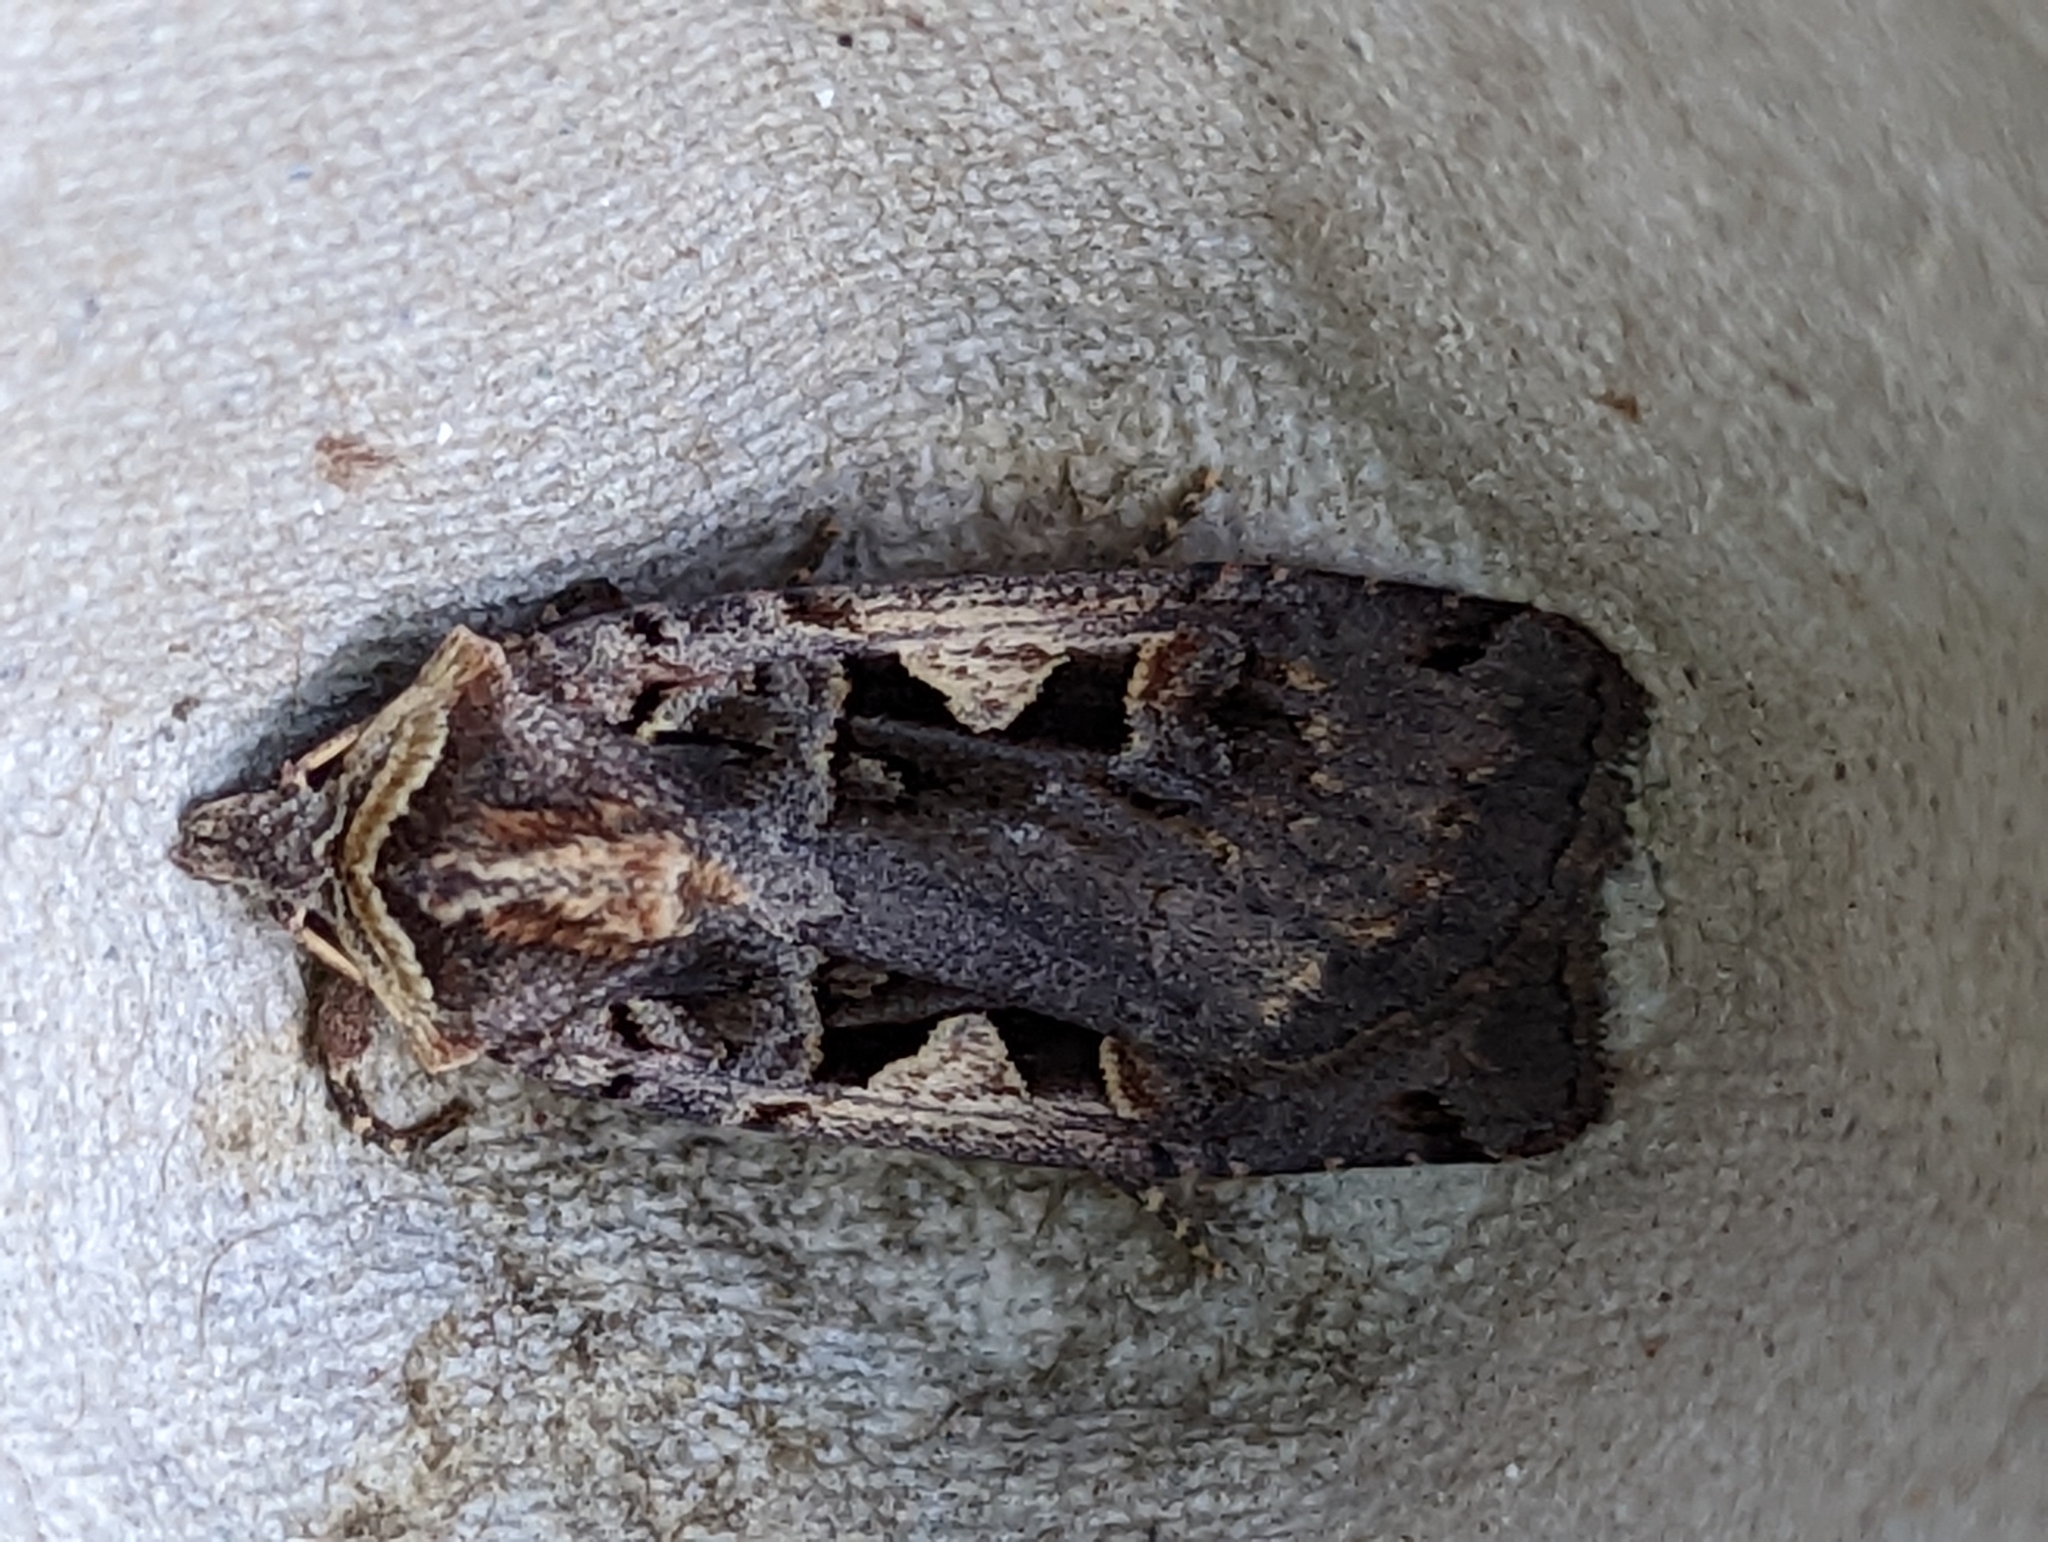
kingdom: Animalia
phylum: Arthropoda
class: Insecta
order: Lepidoptera
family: Noctuidae
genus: Xestia
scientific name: Xestia c-nigrum
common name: Setaceous hebrew character
